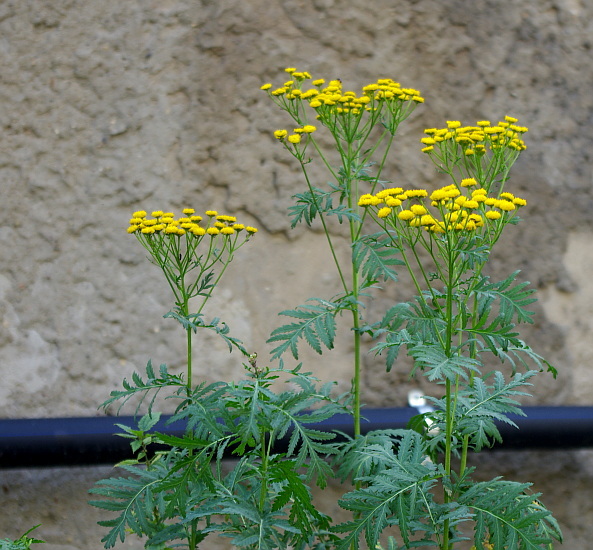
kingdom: Plantae
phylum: Tracheophyta
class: Magnoliopsida
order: Asterales
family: Asteraceae
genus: Tanacetum
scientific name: Tanacetum vulgare
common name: Common tansy
